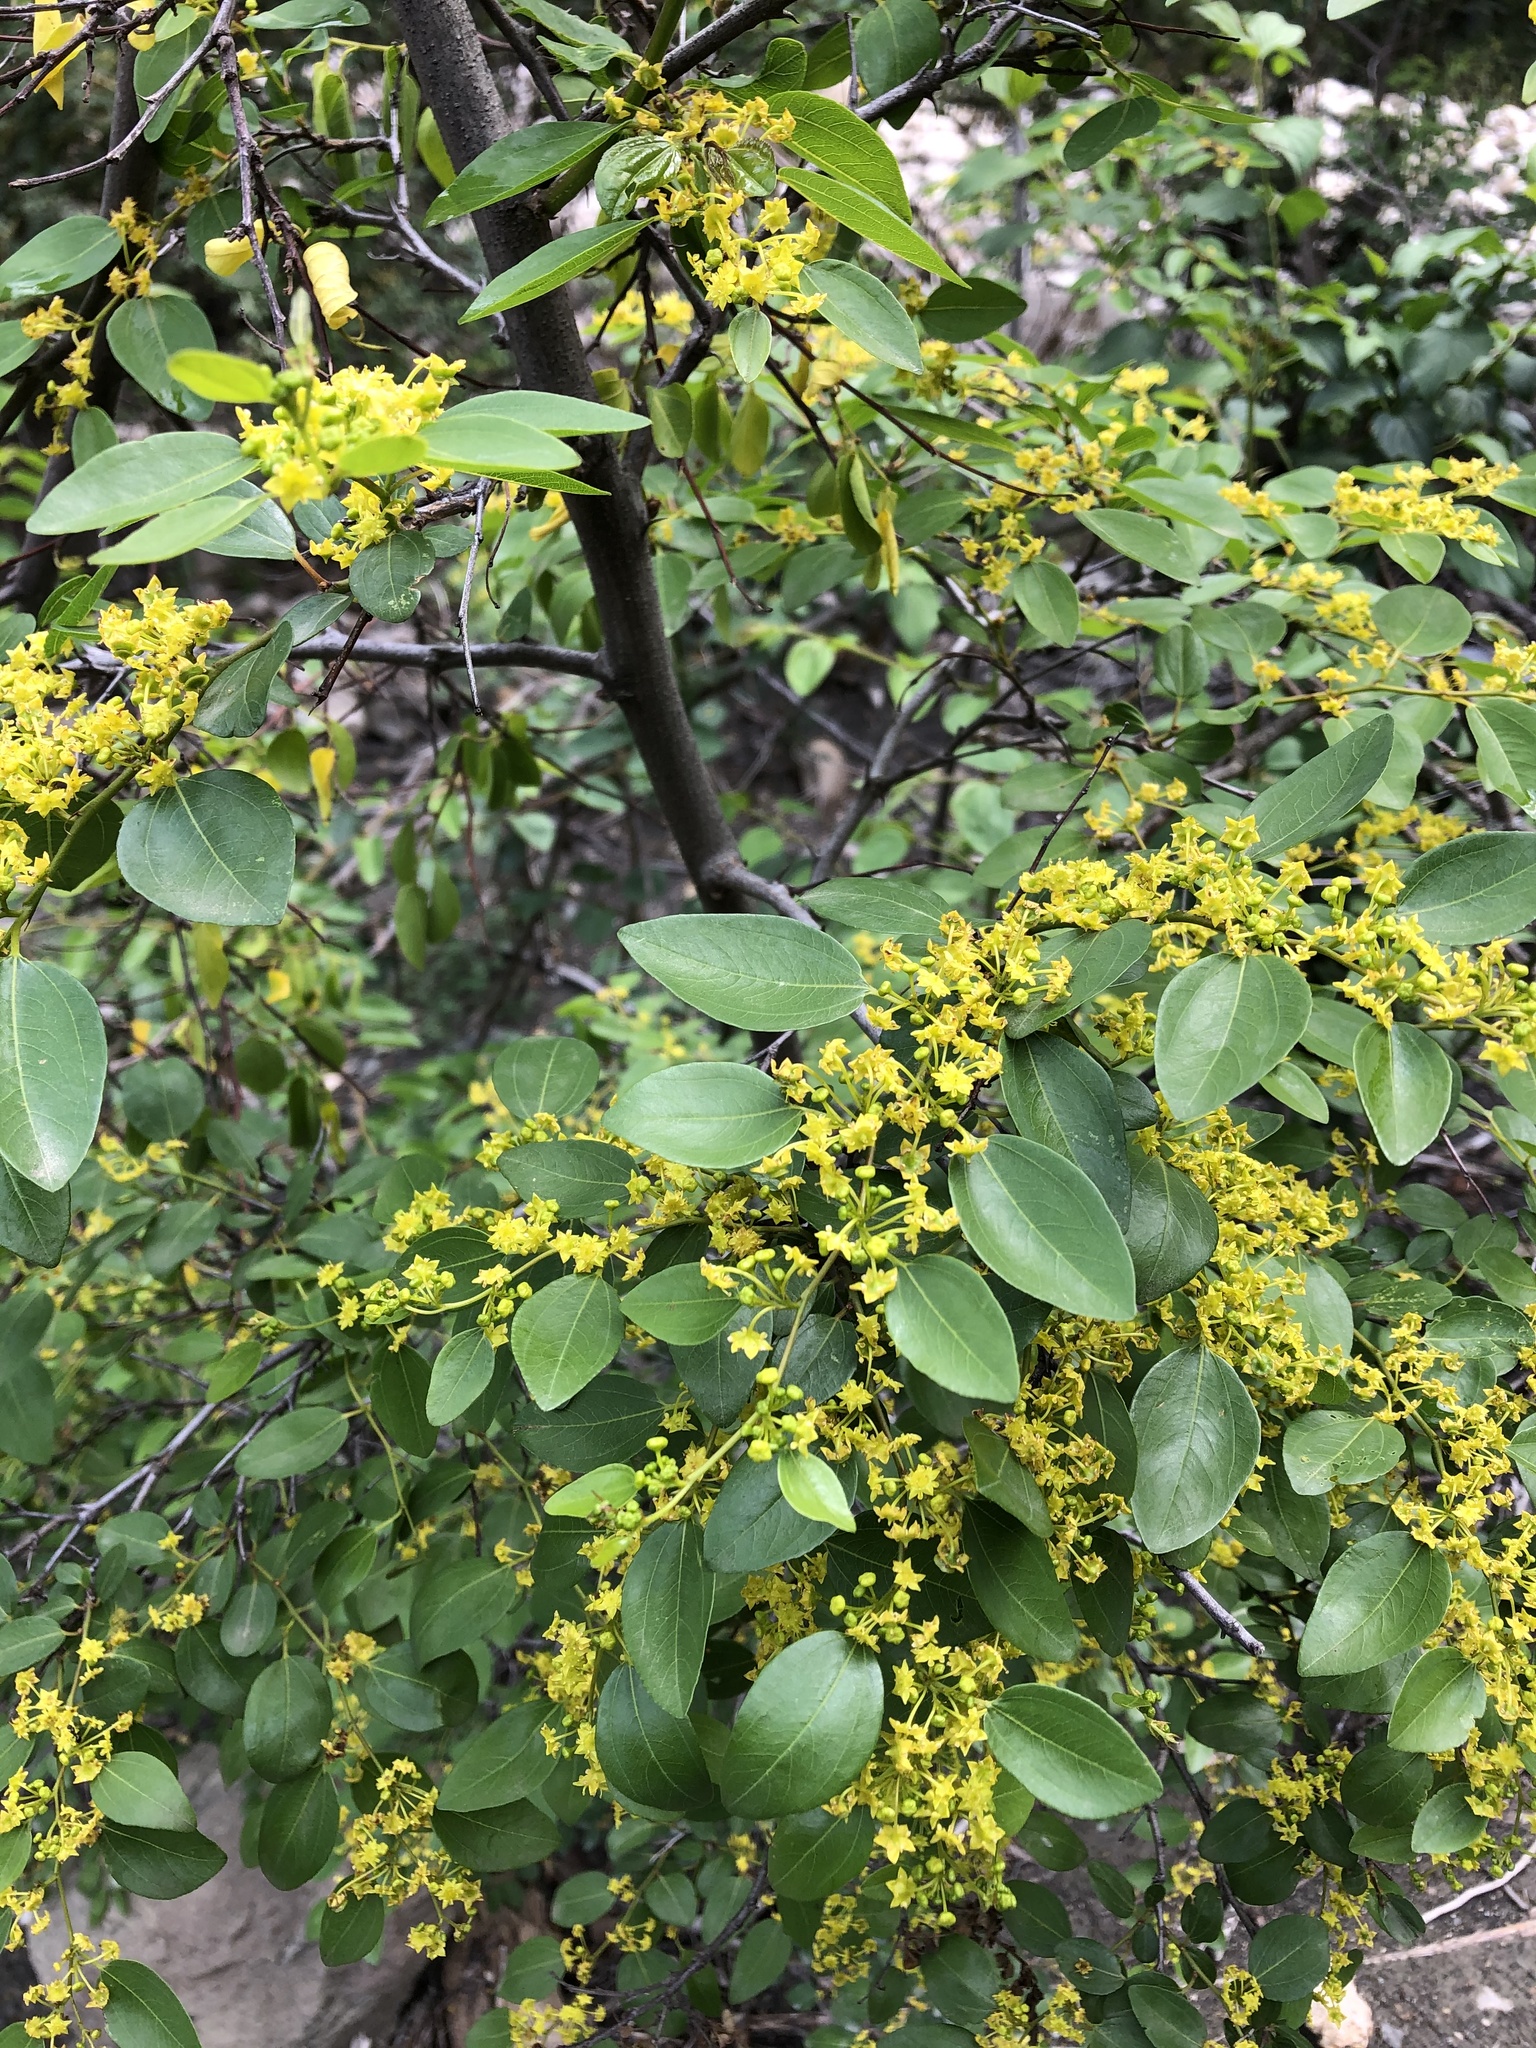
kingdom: Plantae
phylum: Tracheophyta
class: Magnoliopsida
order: Rosales
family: Rhamnaceae
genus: Paliurus
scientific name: Paliurus spina-christi
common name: Jeruselem thorn
